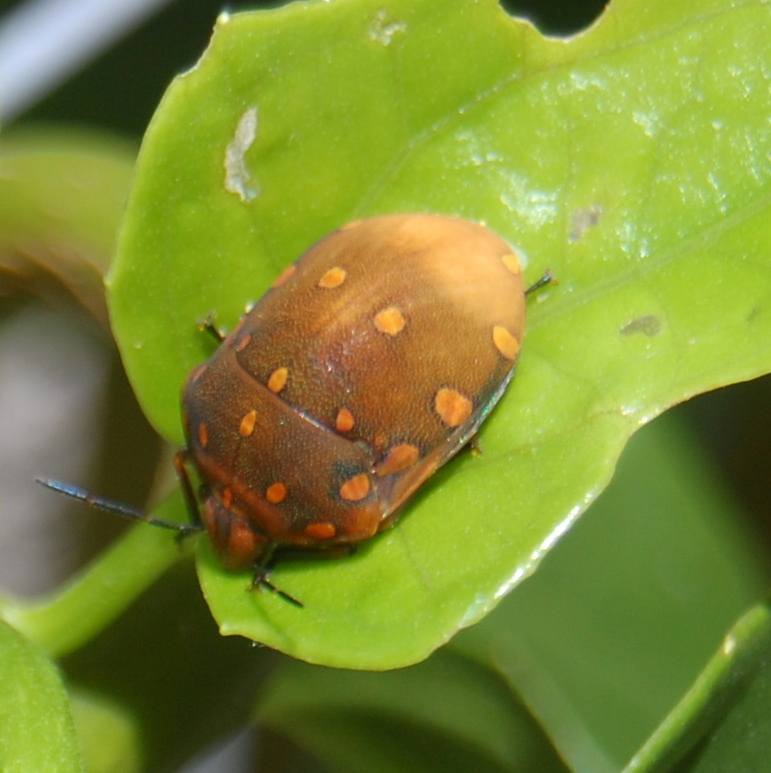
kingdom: Animalia
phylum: Arthropoda
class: Insecta
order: Hemiptera
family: Scutelleridae
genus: Pachycoris
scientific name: Pachycoris torridus
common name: Torrid jewel bug
